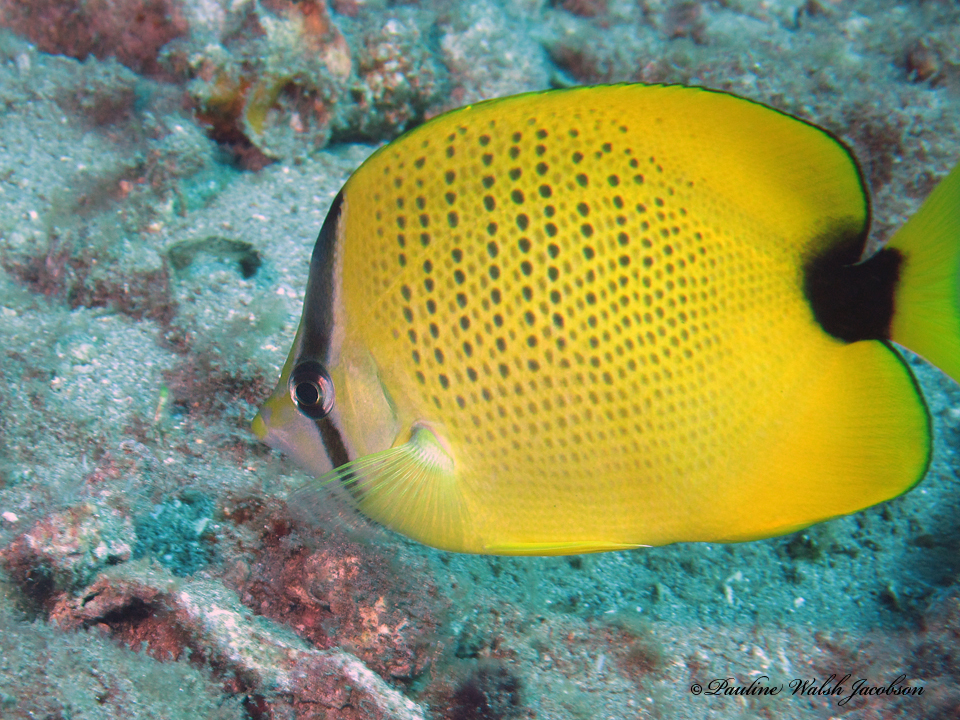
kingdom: Animalia
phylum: Chordata
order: Perciformes
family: Chaetodontidae
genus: Chaetodon
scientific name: Chaetodon miliaris
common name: Lemon butterflyfish
